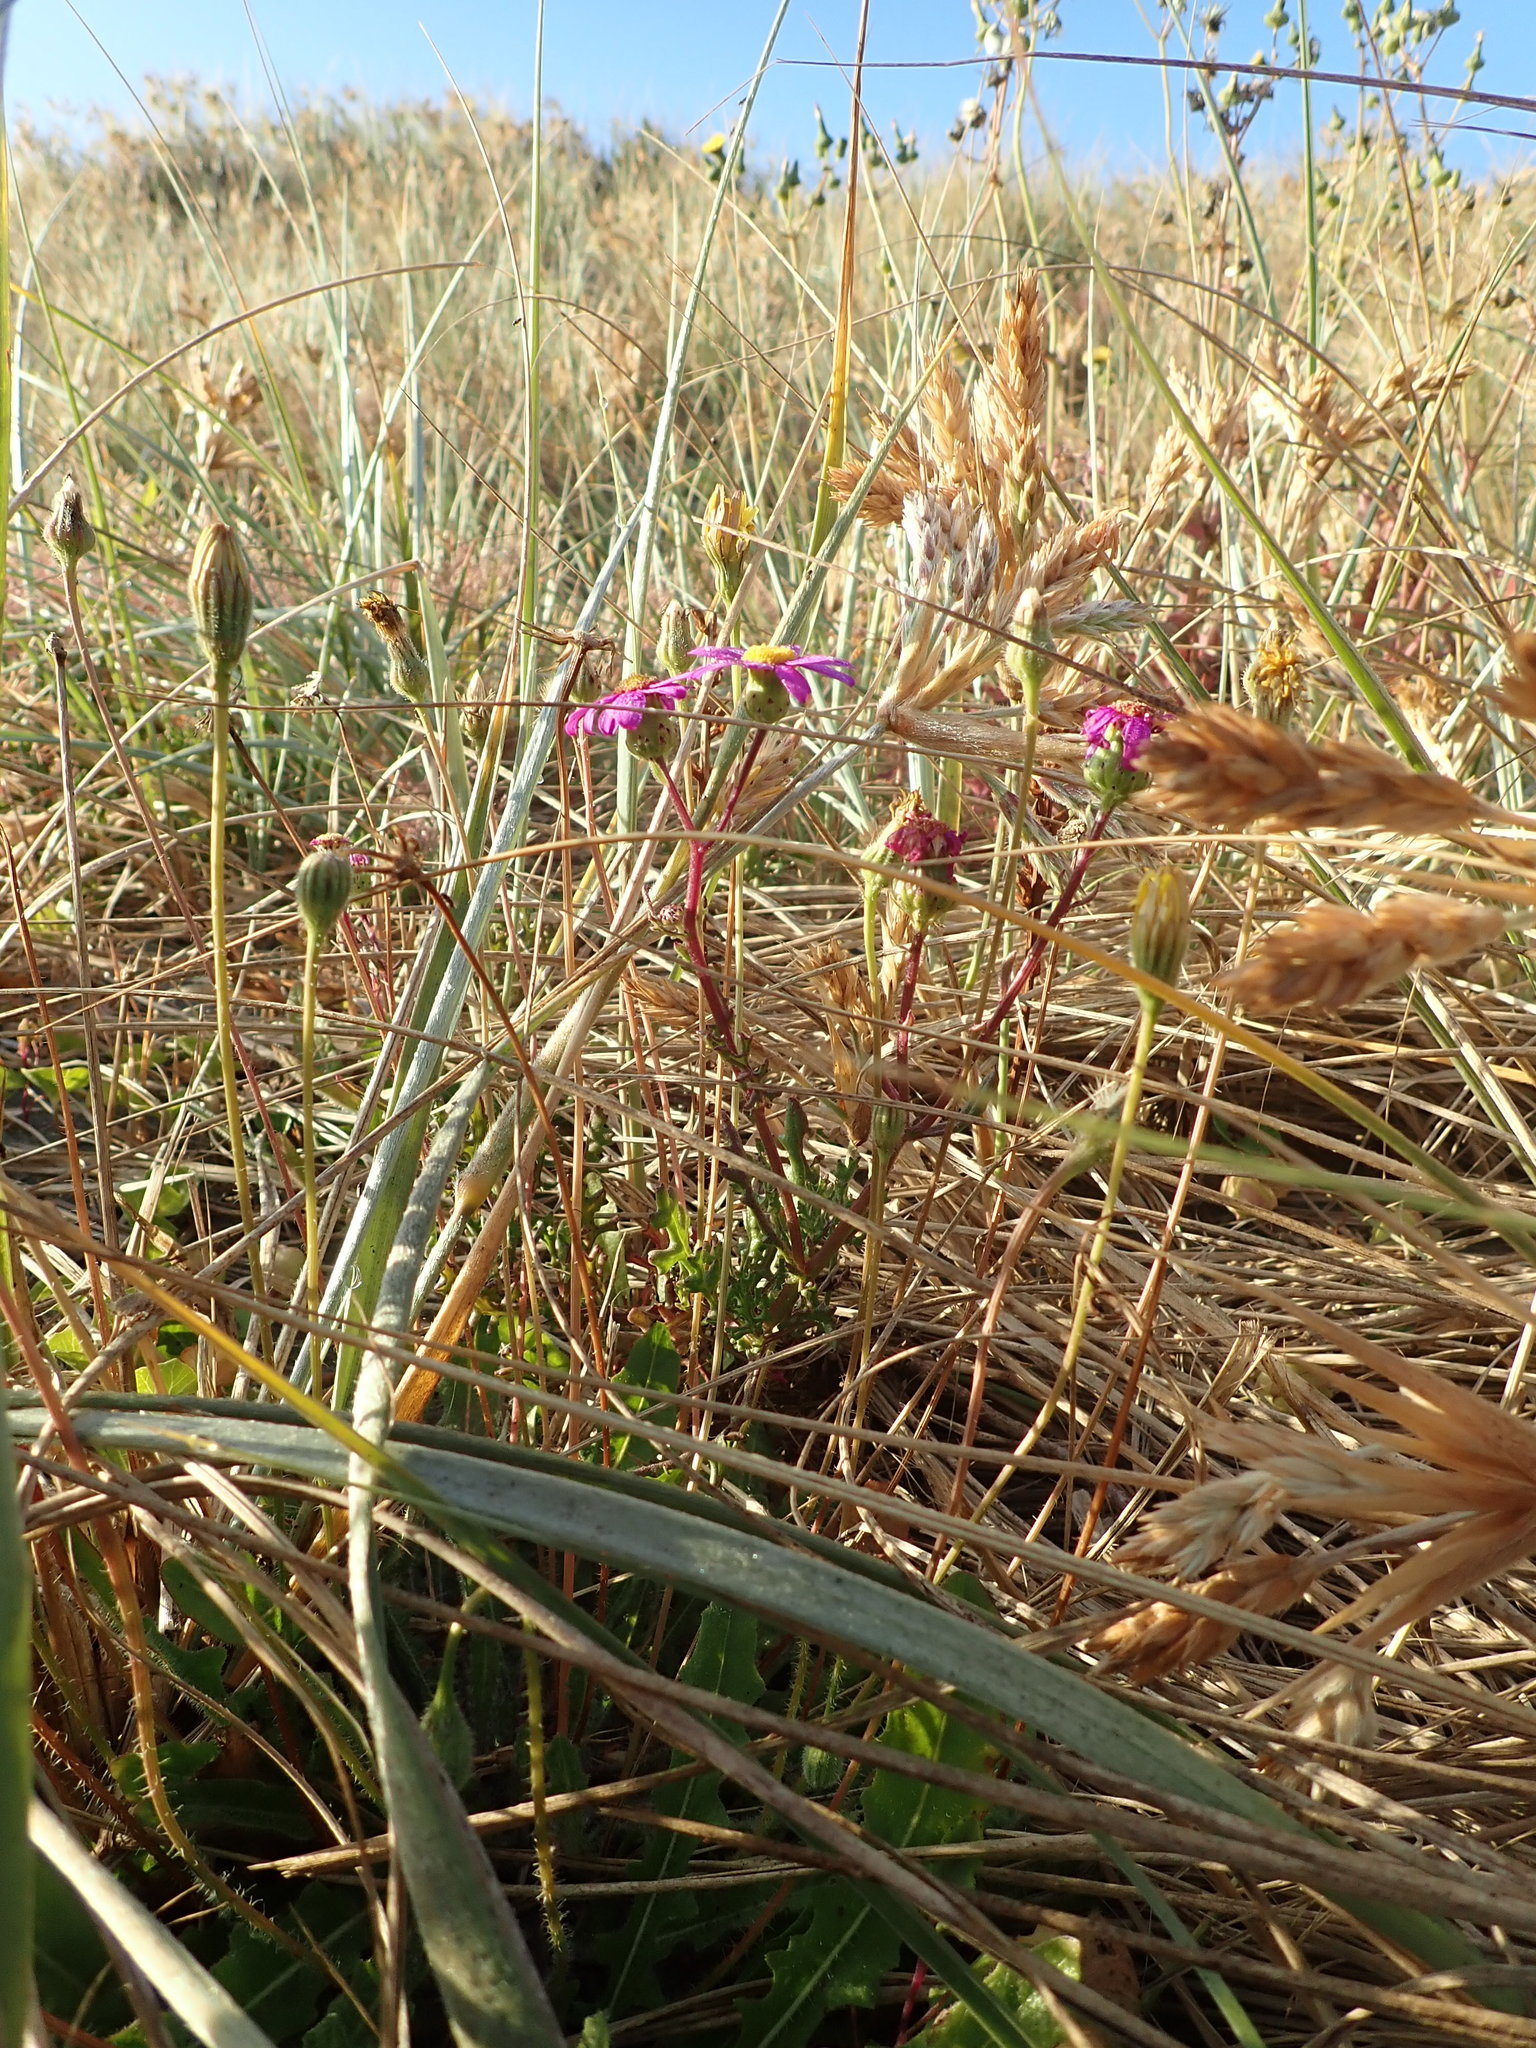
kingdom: Plantae
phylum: Tracheophyta
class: Magnoliopsida
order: Asterales
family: Asteraceae
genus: Senecio
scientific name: Senecio elegans
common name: Purple groundsel
